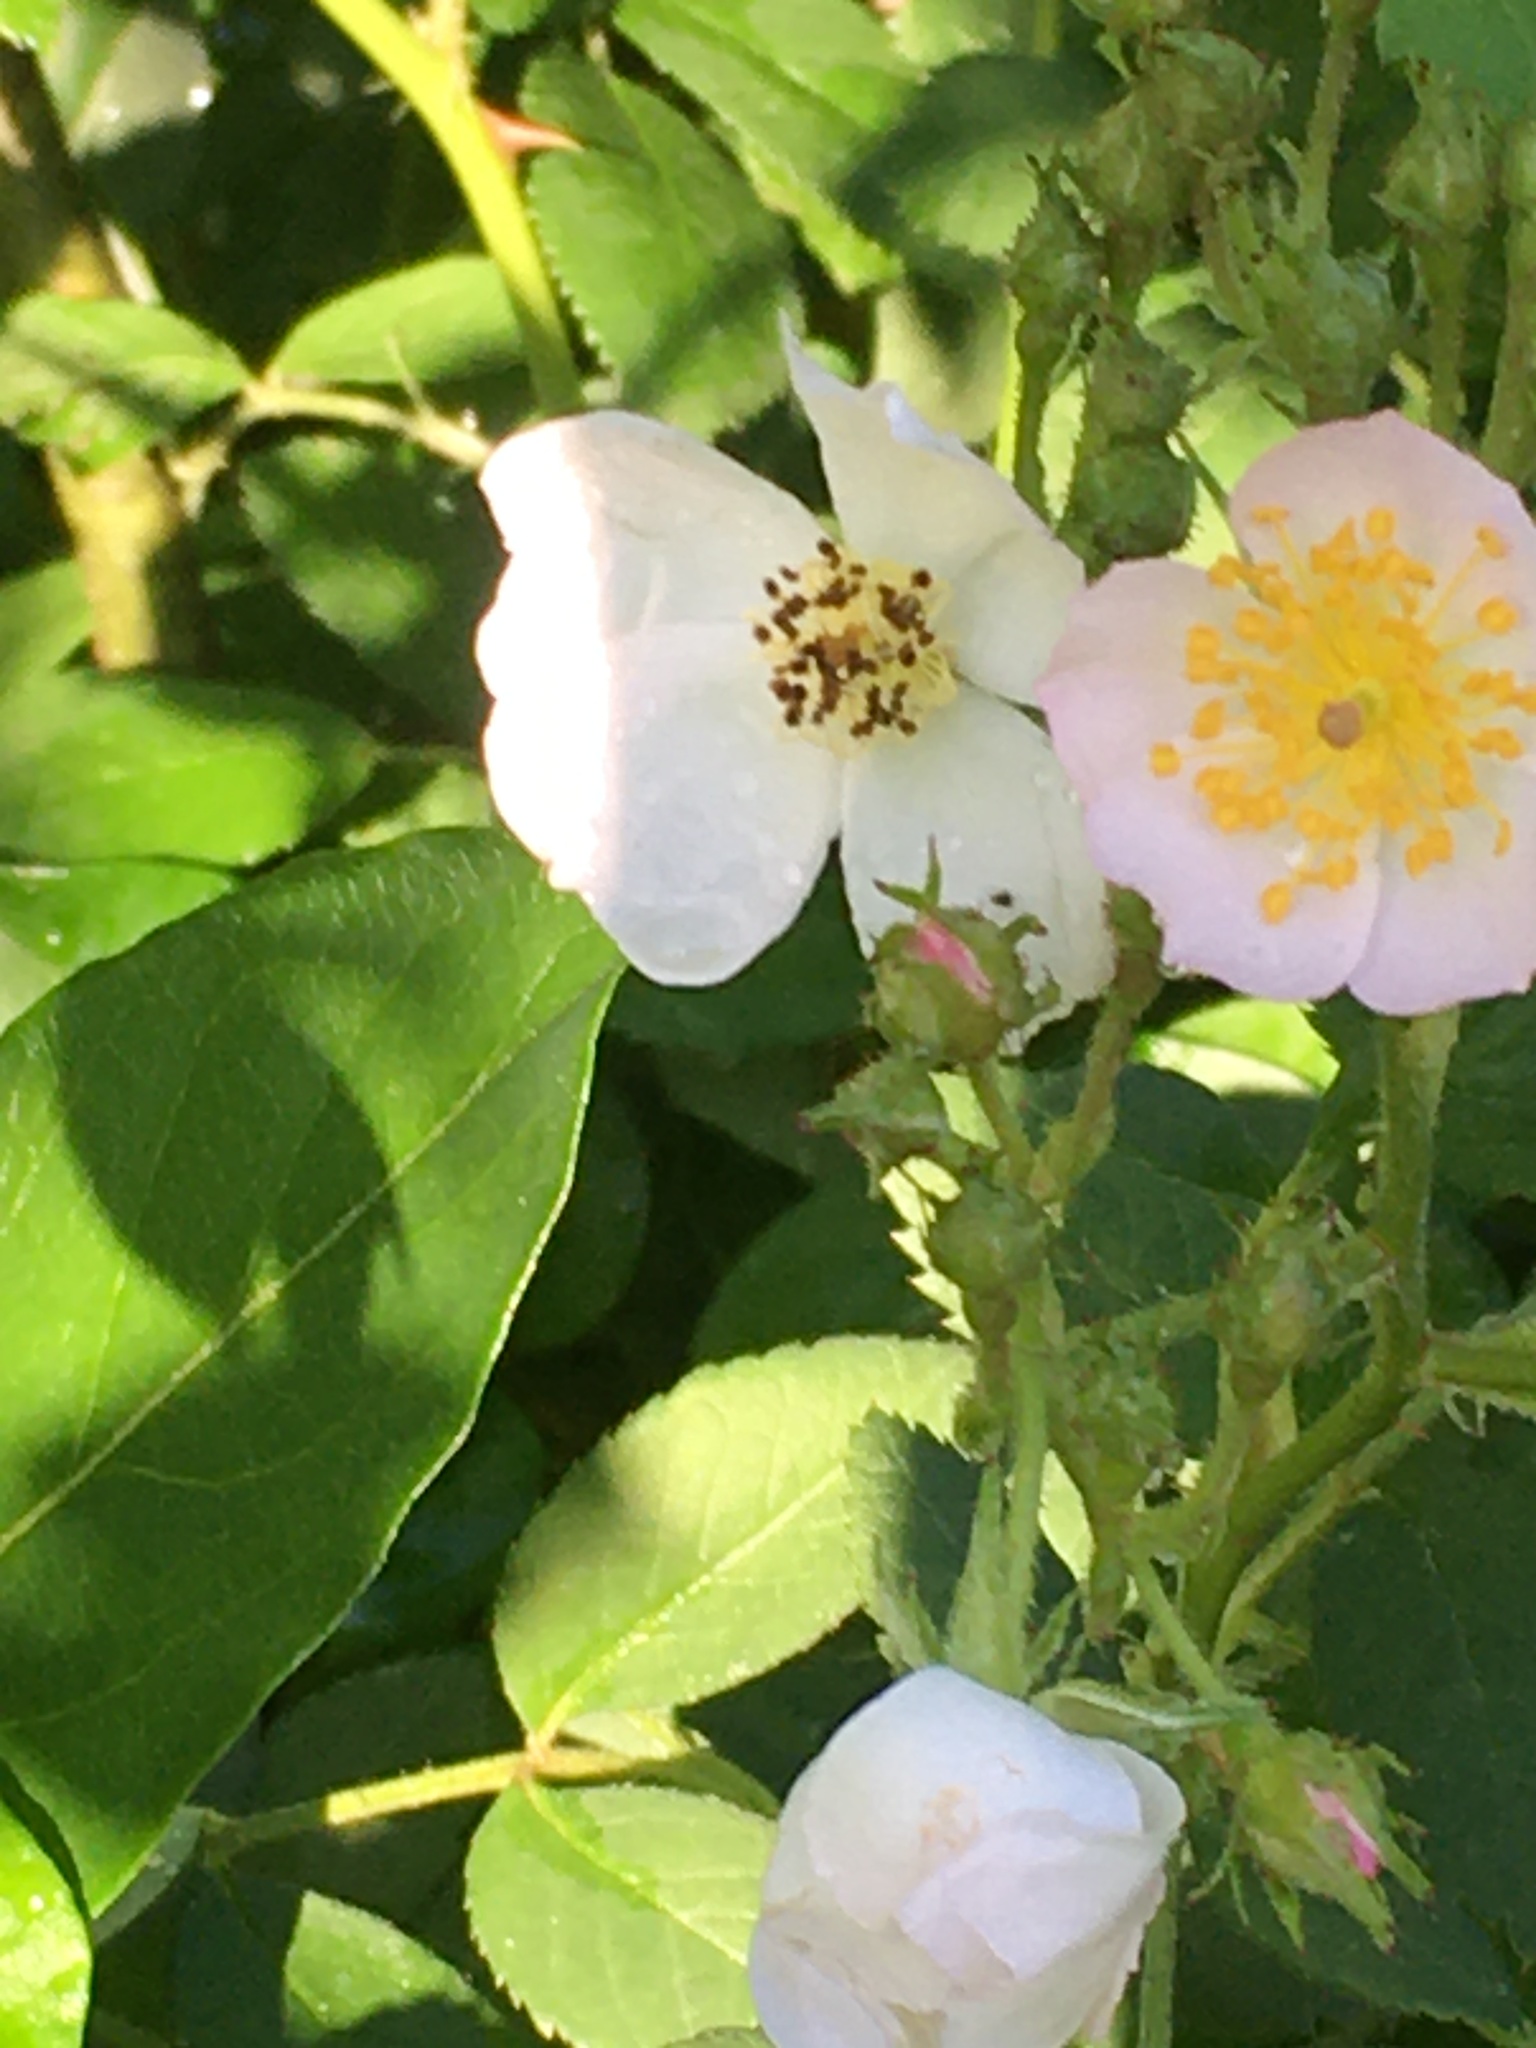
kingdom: Plantae
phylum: Tracheophyta
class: Magnoliopsida
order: Rosales
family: Rosaceae
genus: Rosa
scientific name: Rosa multiflora
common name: Multiflora rose
